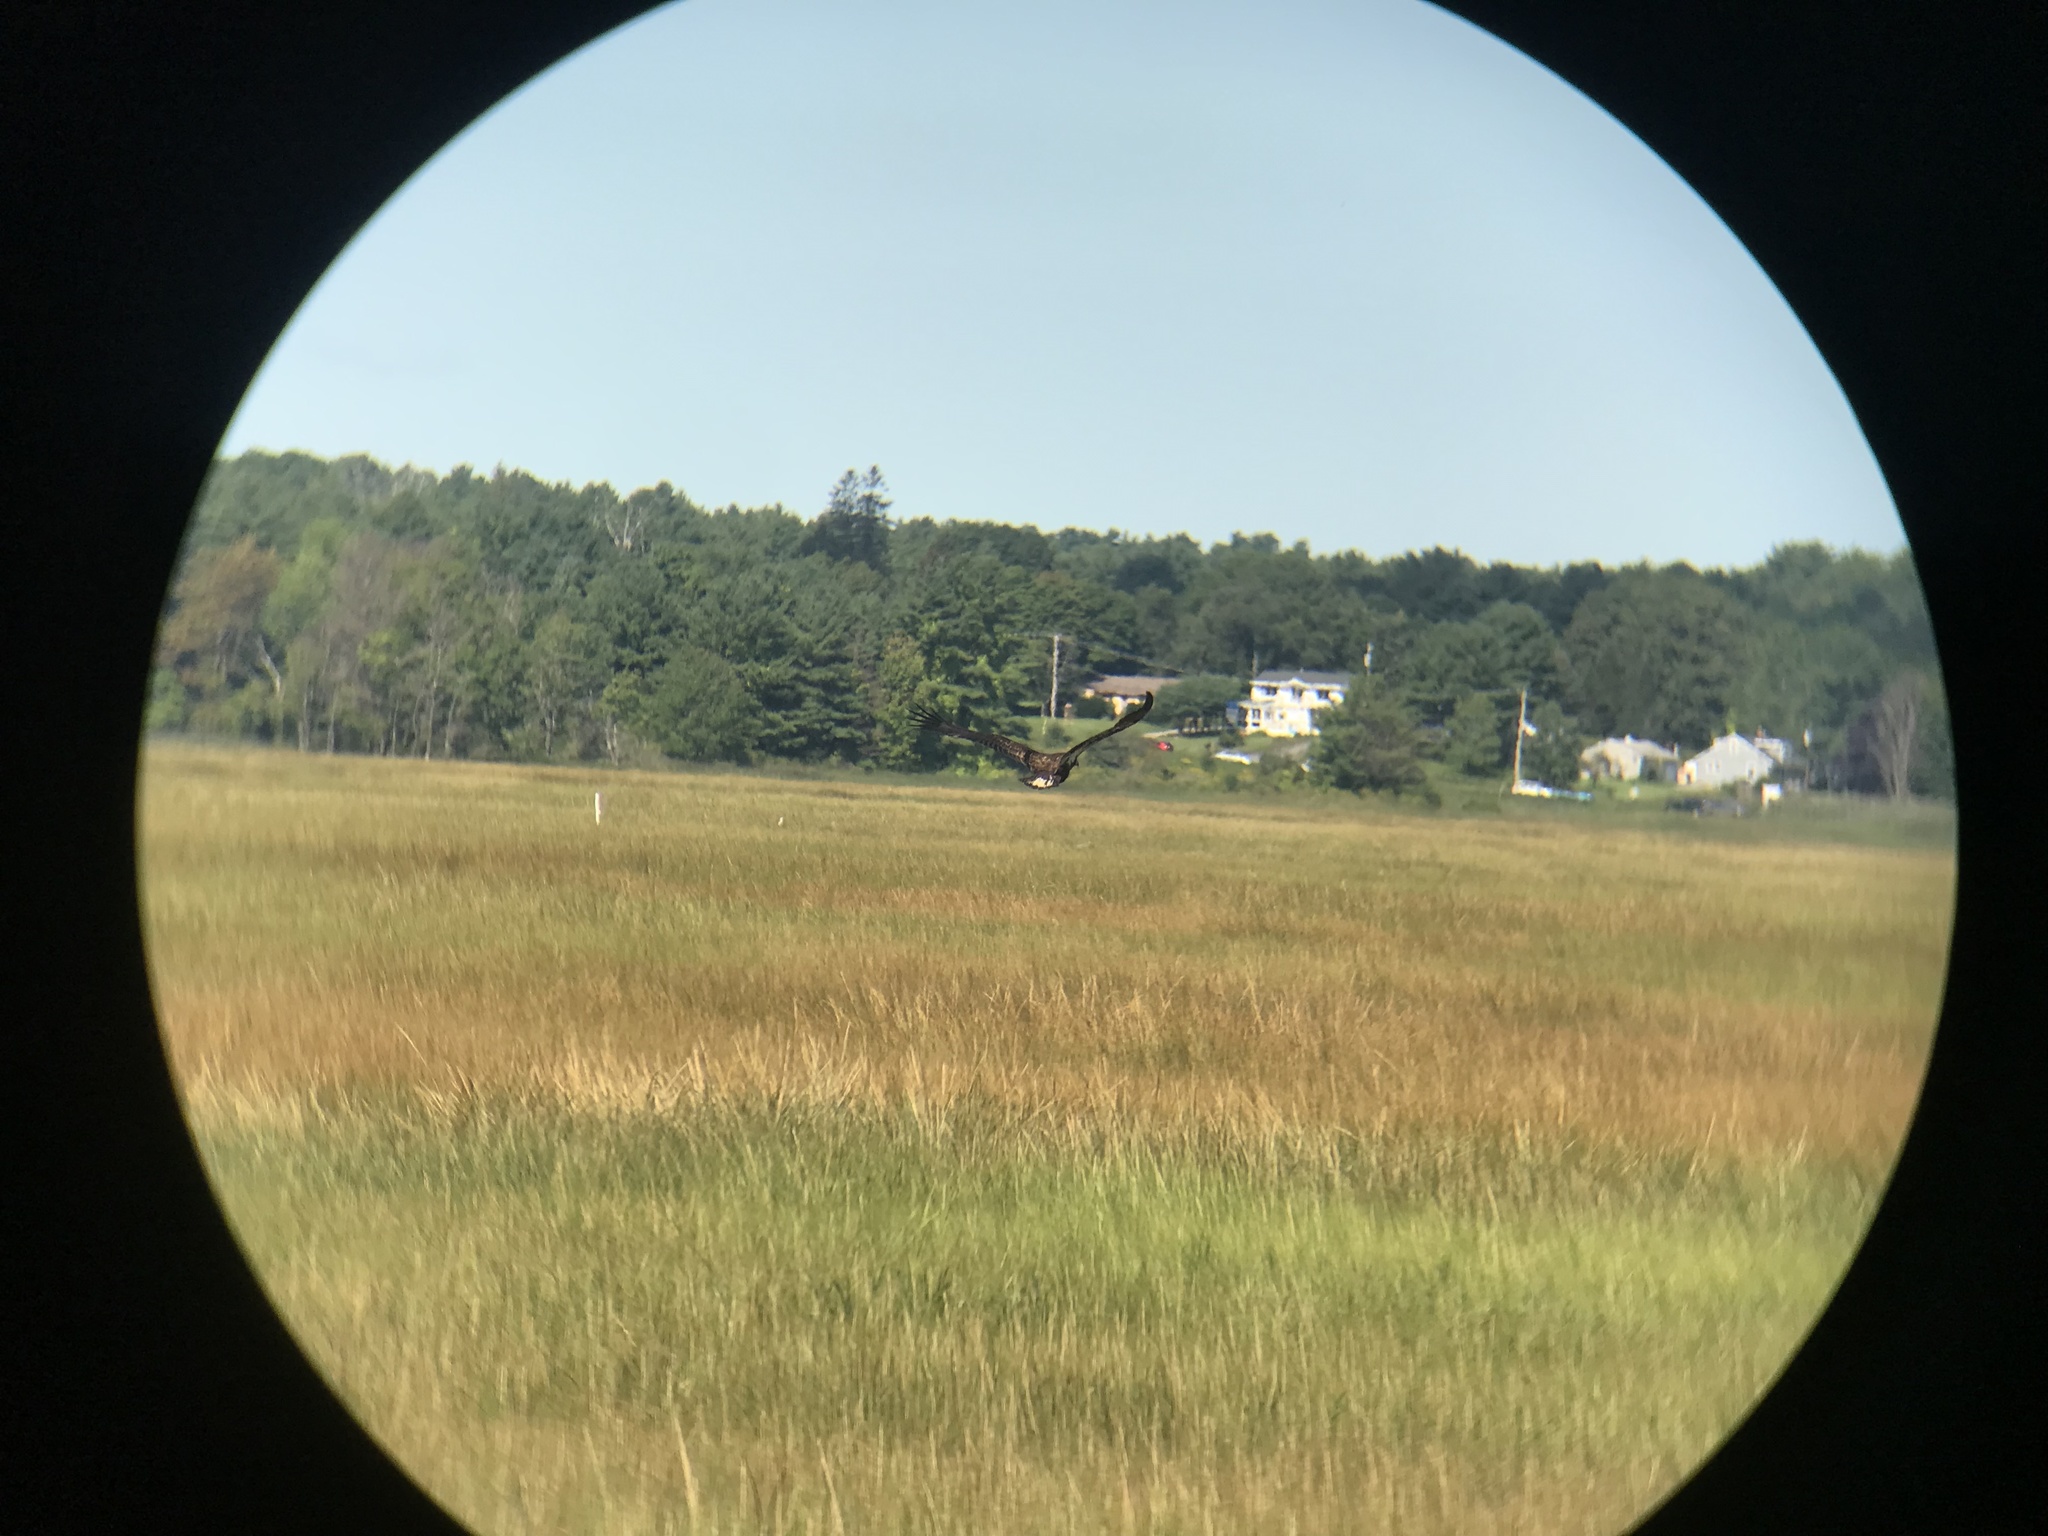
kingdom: Animalia
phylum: Chordata
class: Aves
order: Accipitriformes
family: Accipitridae
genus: Haliaeetus
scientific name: Haliaeetus leucocephalus
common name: Bald eagle
